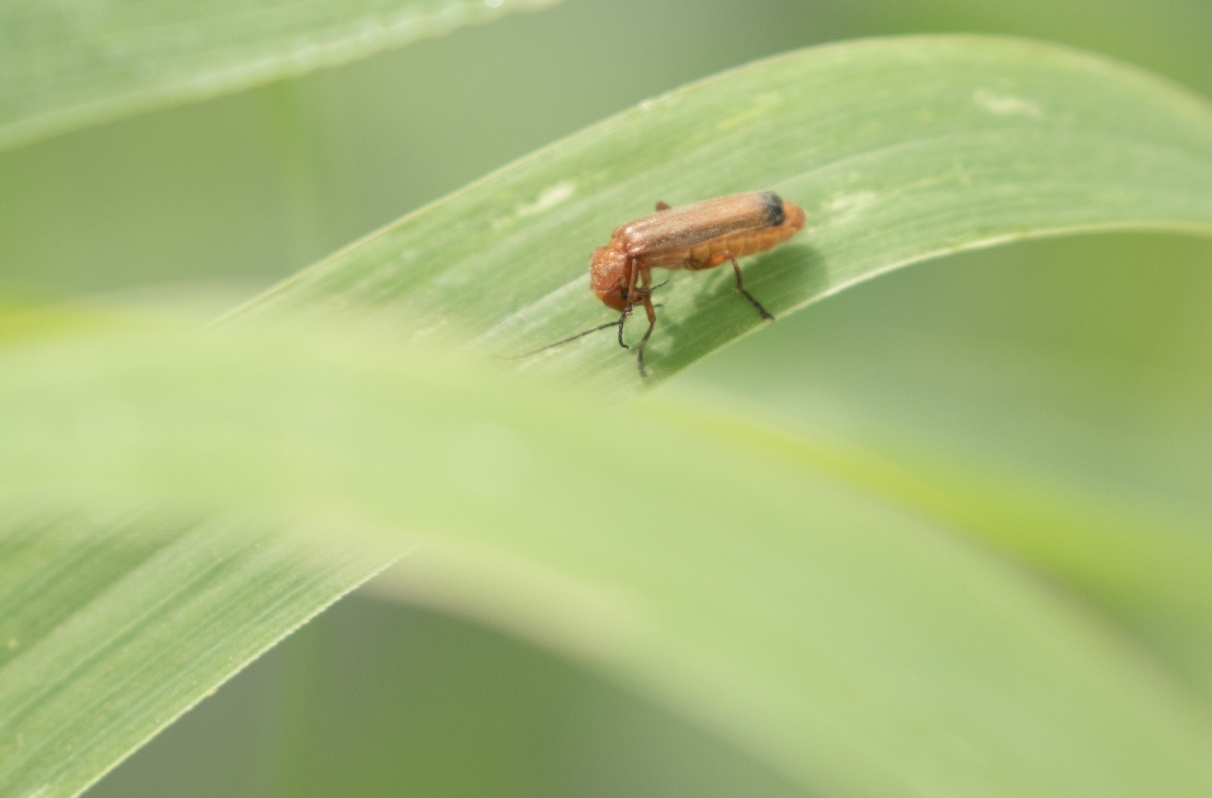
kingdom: Animalia
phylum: Arthropoda
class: Insecta
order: Coleoptera
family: Cantharidae
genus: Rhagonycha
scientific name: Rhagonycha fulva
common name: Common red soldier beetle
